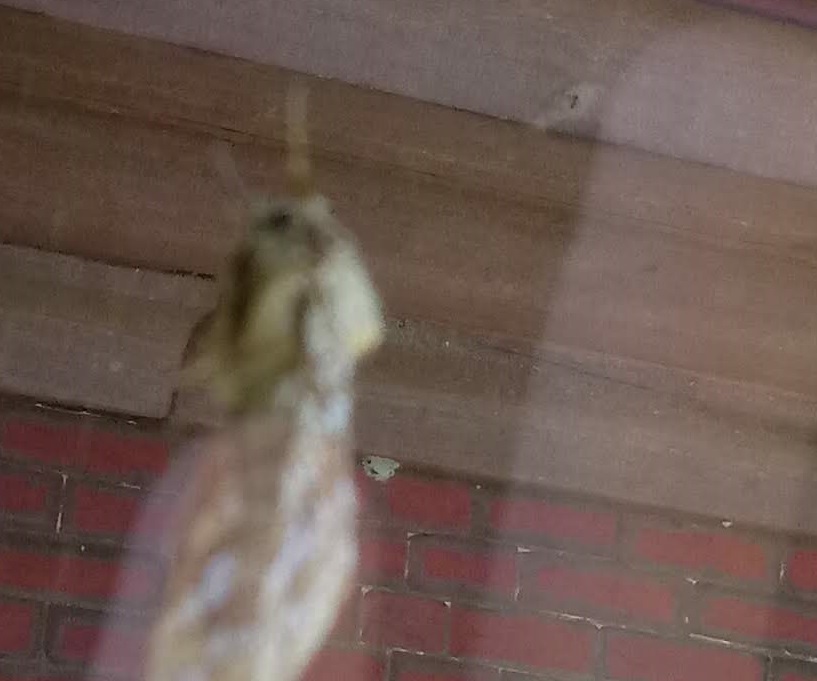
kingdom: Animalia
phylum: Arthropoda
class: Insecta
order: Hymenoptera
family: Sphecidae
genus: Sceliphron
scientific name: Sceliphron caementarium
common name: Mud dauber
